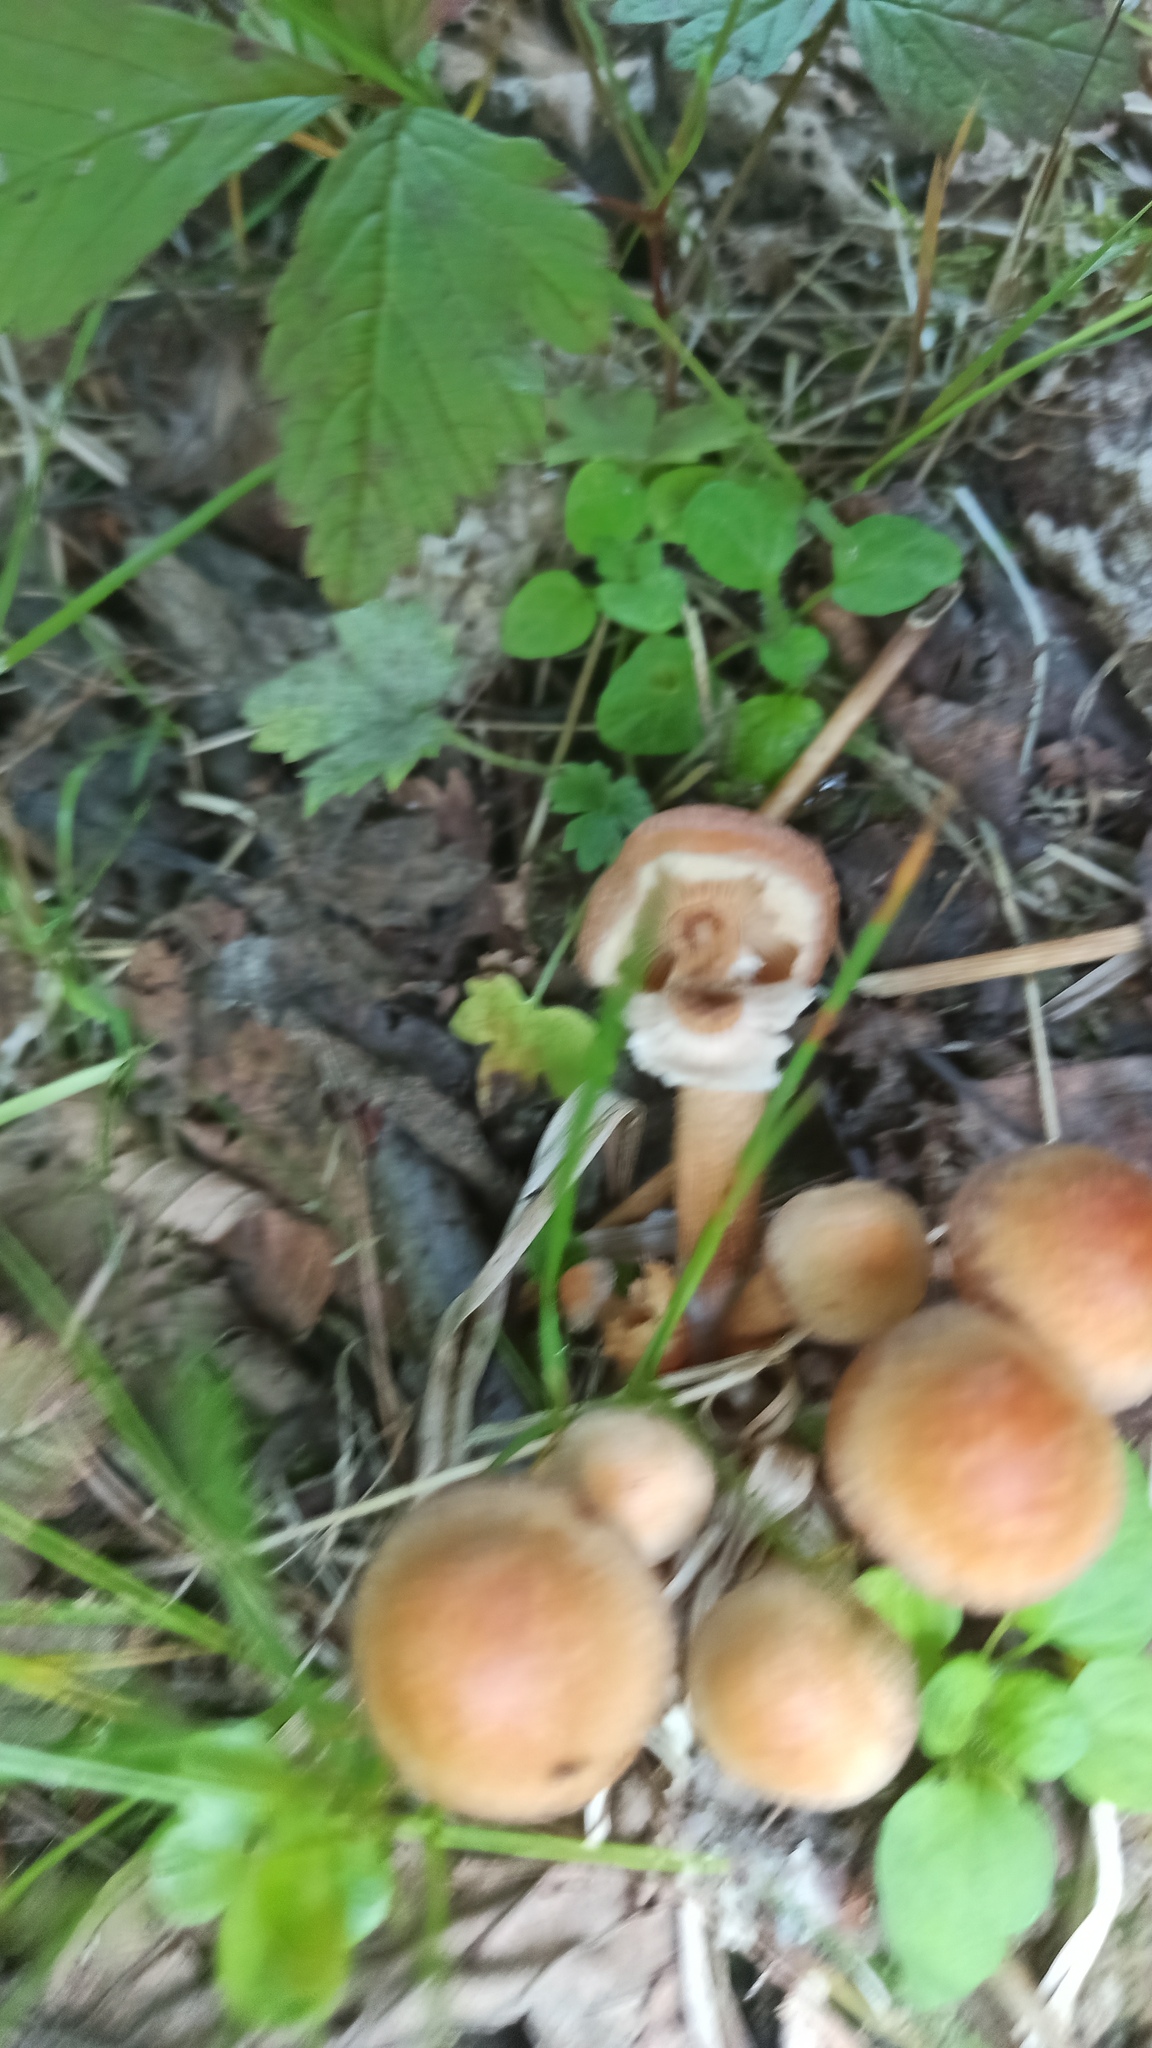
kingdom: Fungi
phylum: Basidiomycota
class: Agaricomycetes
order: Agaricales
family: Strophariaceae
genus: Kuehneromyces
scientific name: Kuehneromyces mutabilis
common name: Sheathed woodtuft
